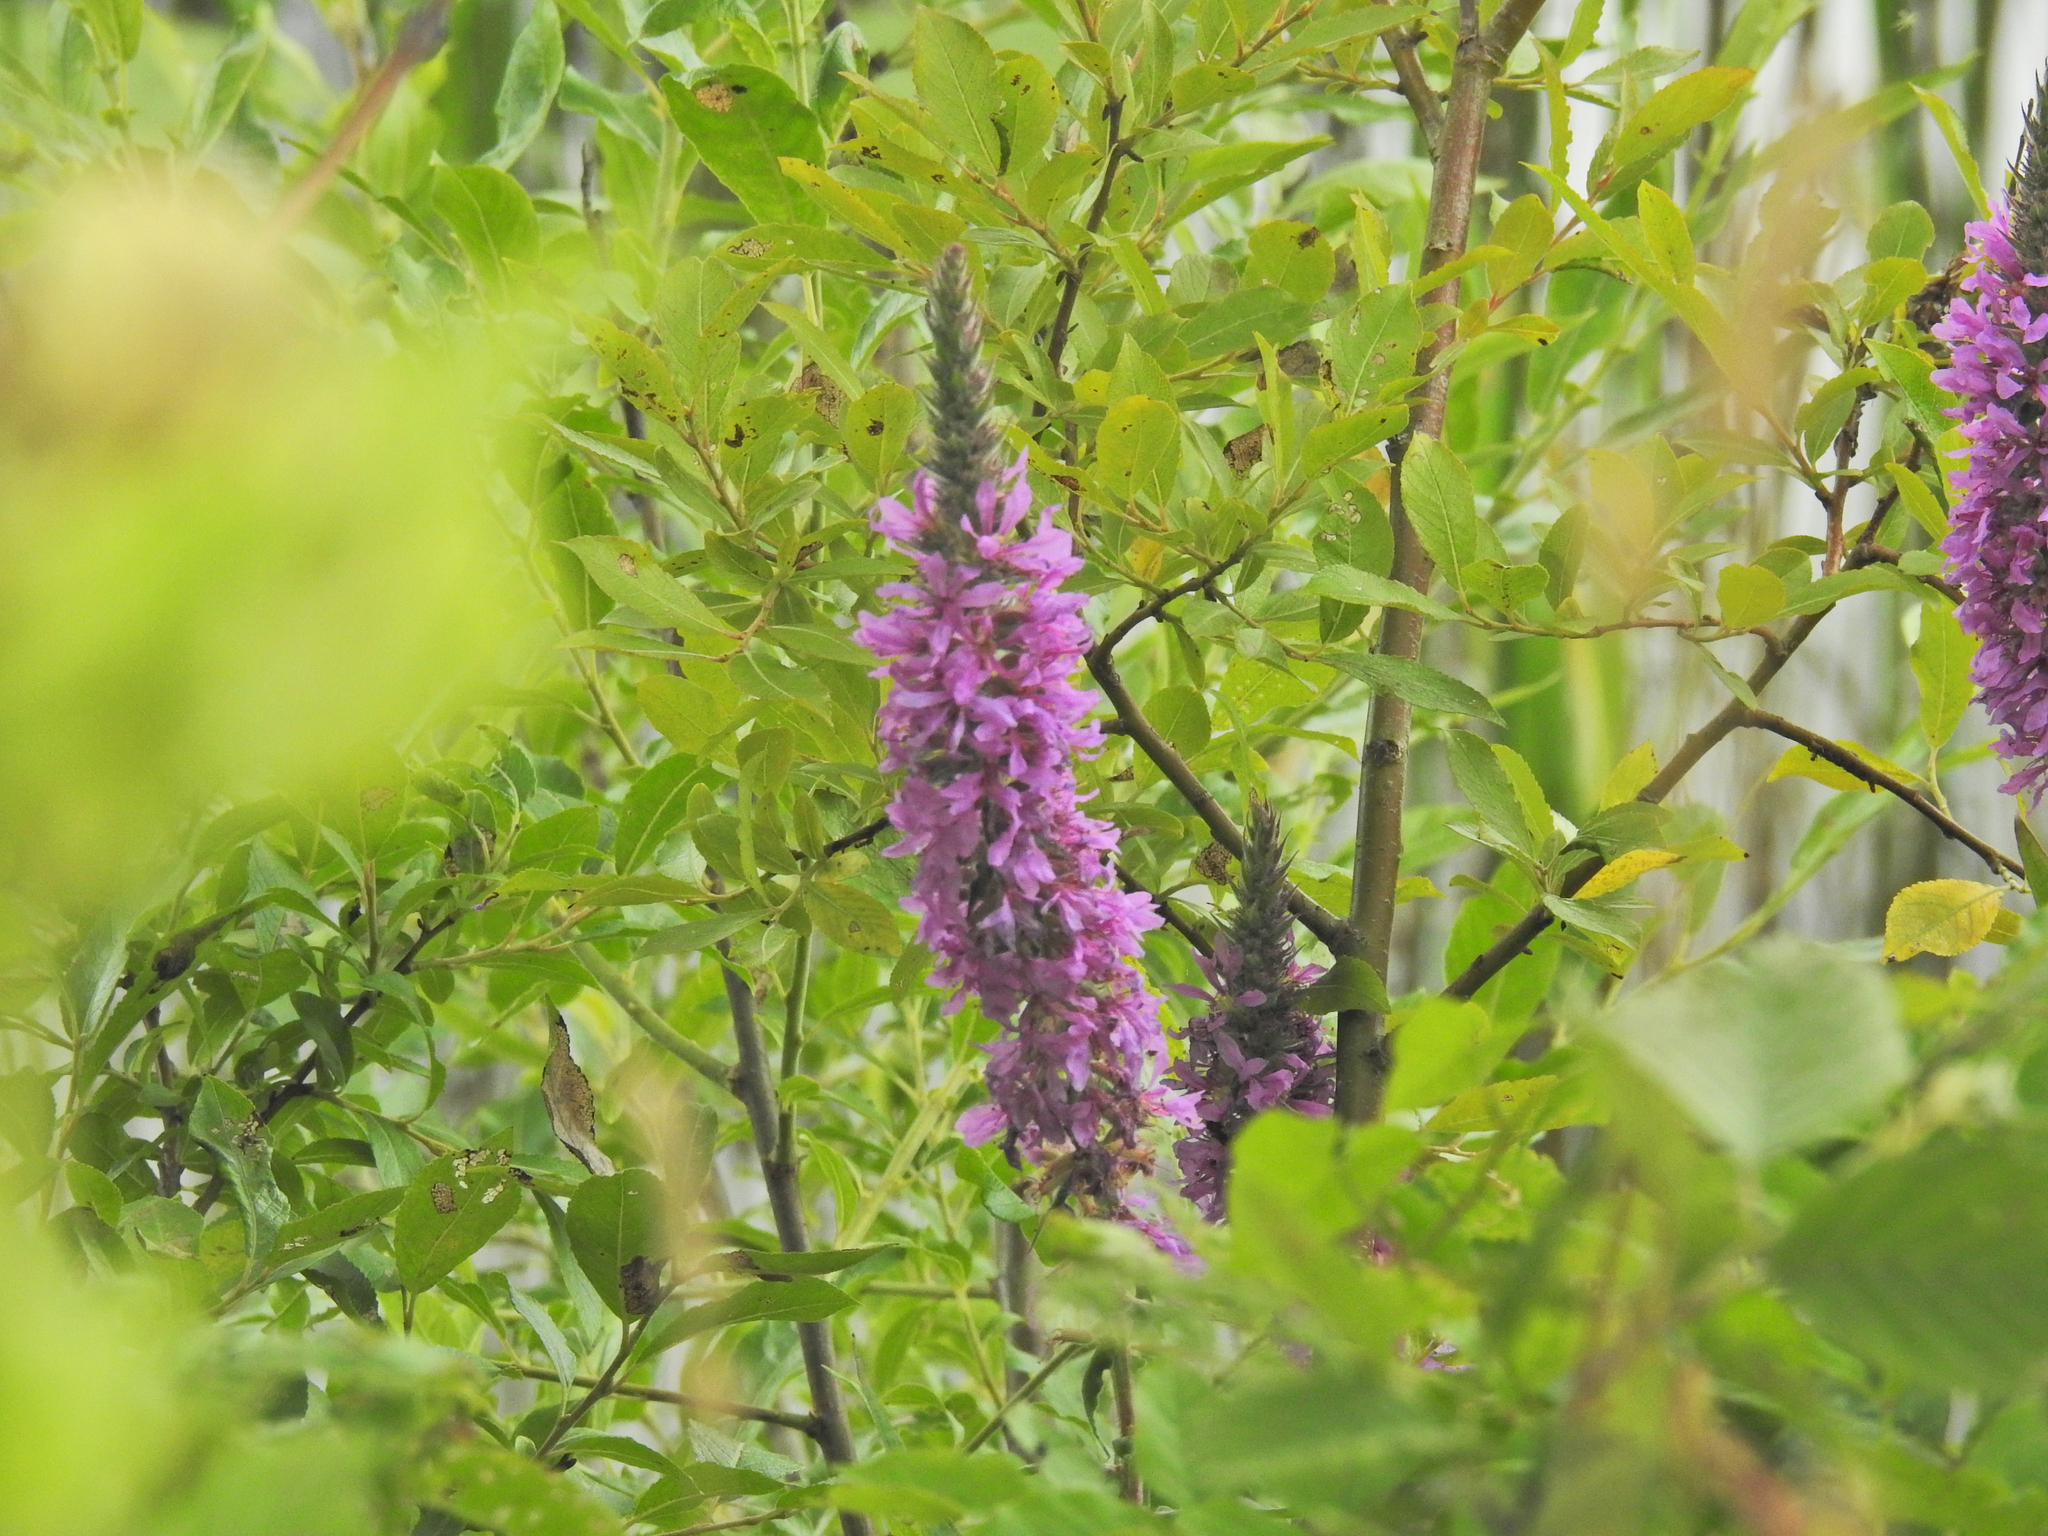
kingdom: Plantae
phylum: Tracheophyta
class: Magnoliopsida
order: Myrtales
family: Lythraceae
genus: Lythrum
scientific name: Lythrum salicaria
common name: Purple loosestrife
